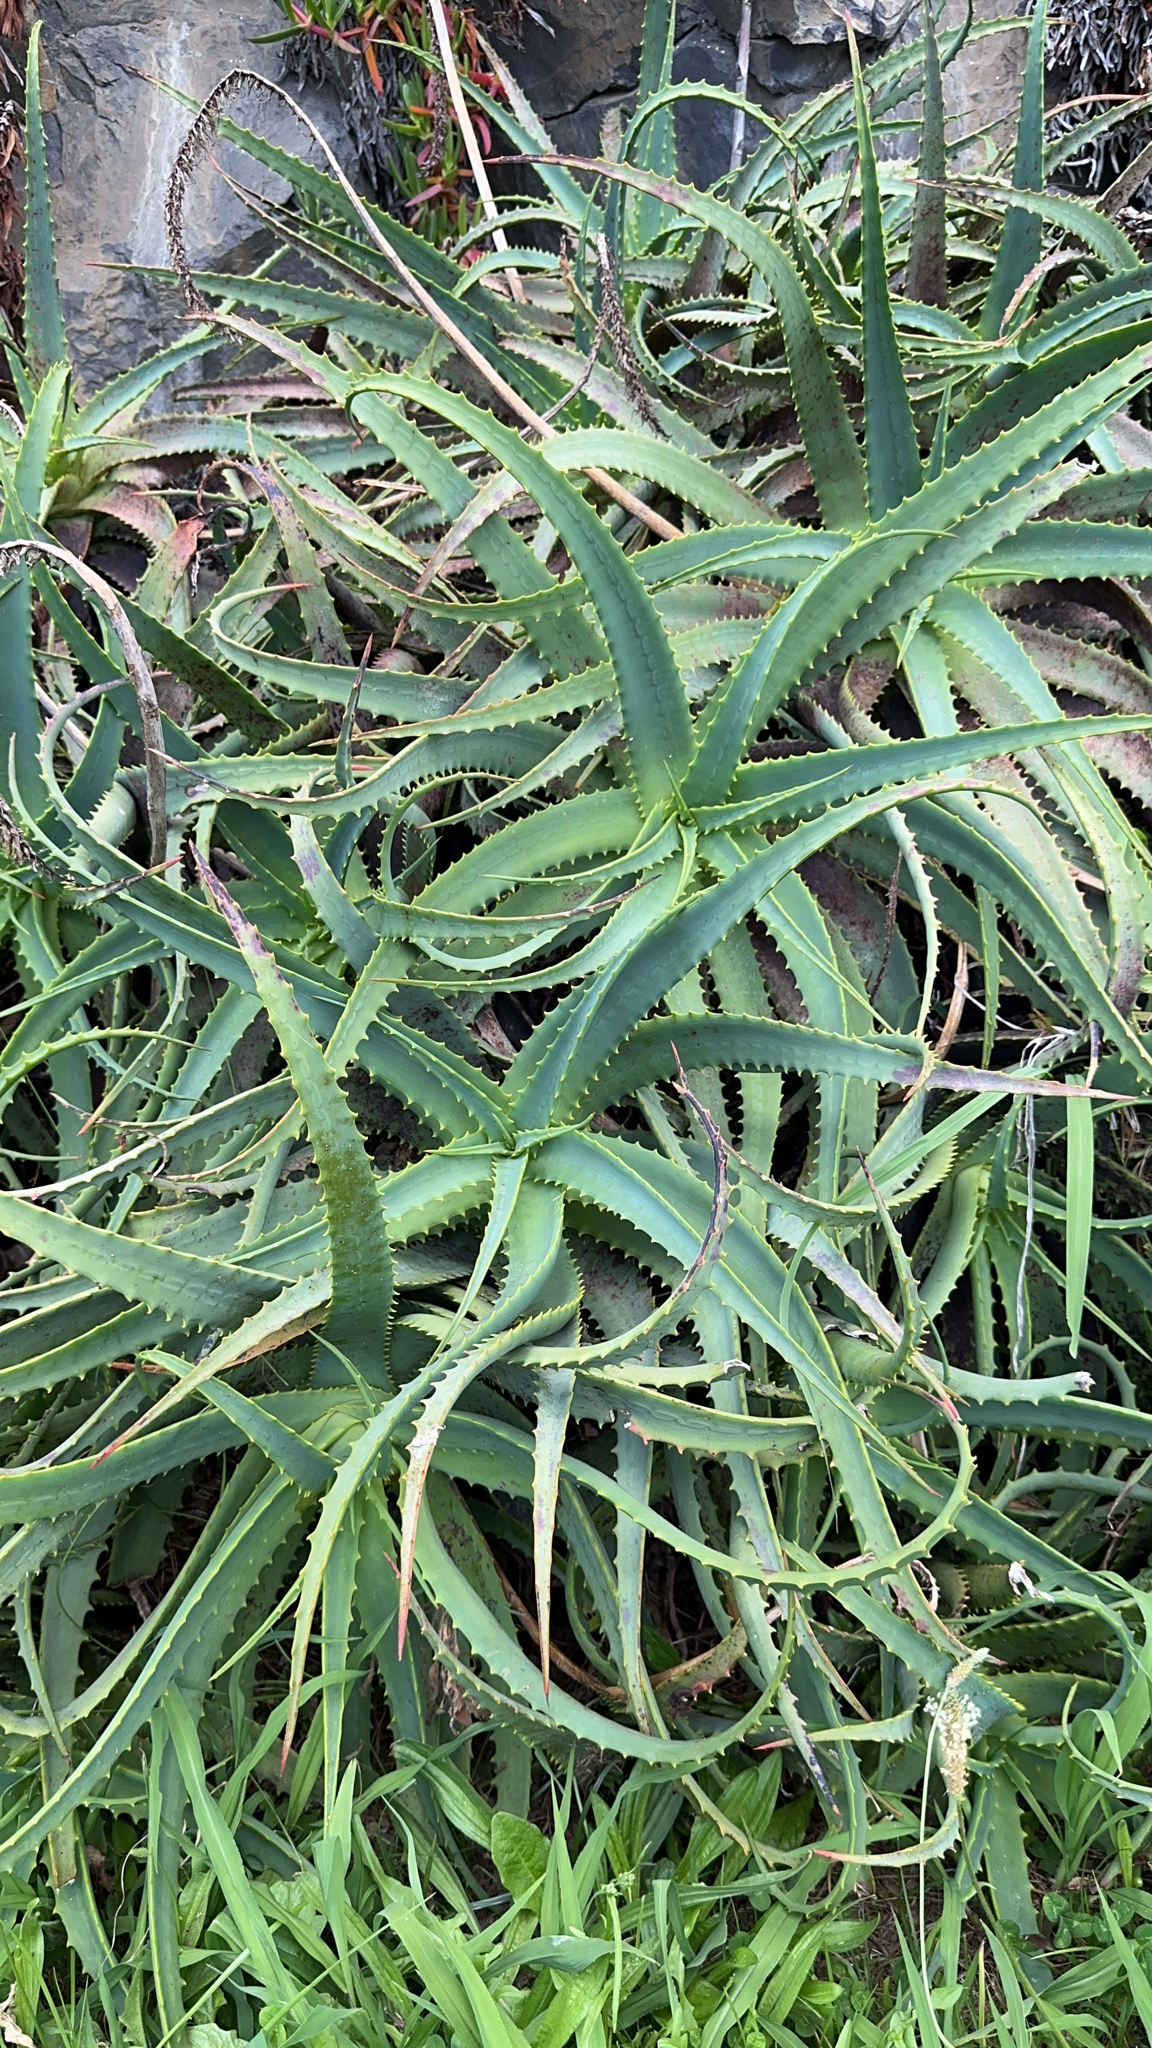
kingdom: Plantae
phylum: Tracheophyta
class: Liliopsida
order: Asparagales
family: Asphodelaceae
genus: Aloe
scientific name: Aloe arborescens
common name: Candelabra aloe
